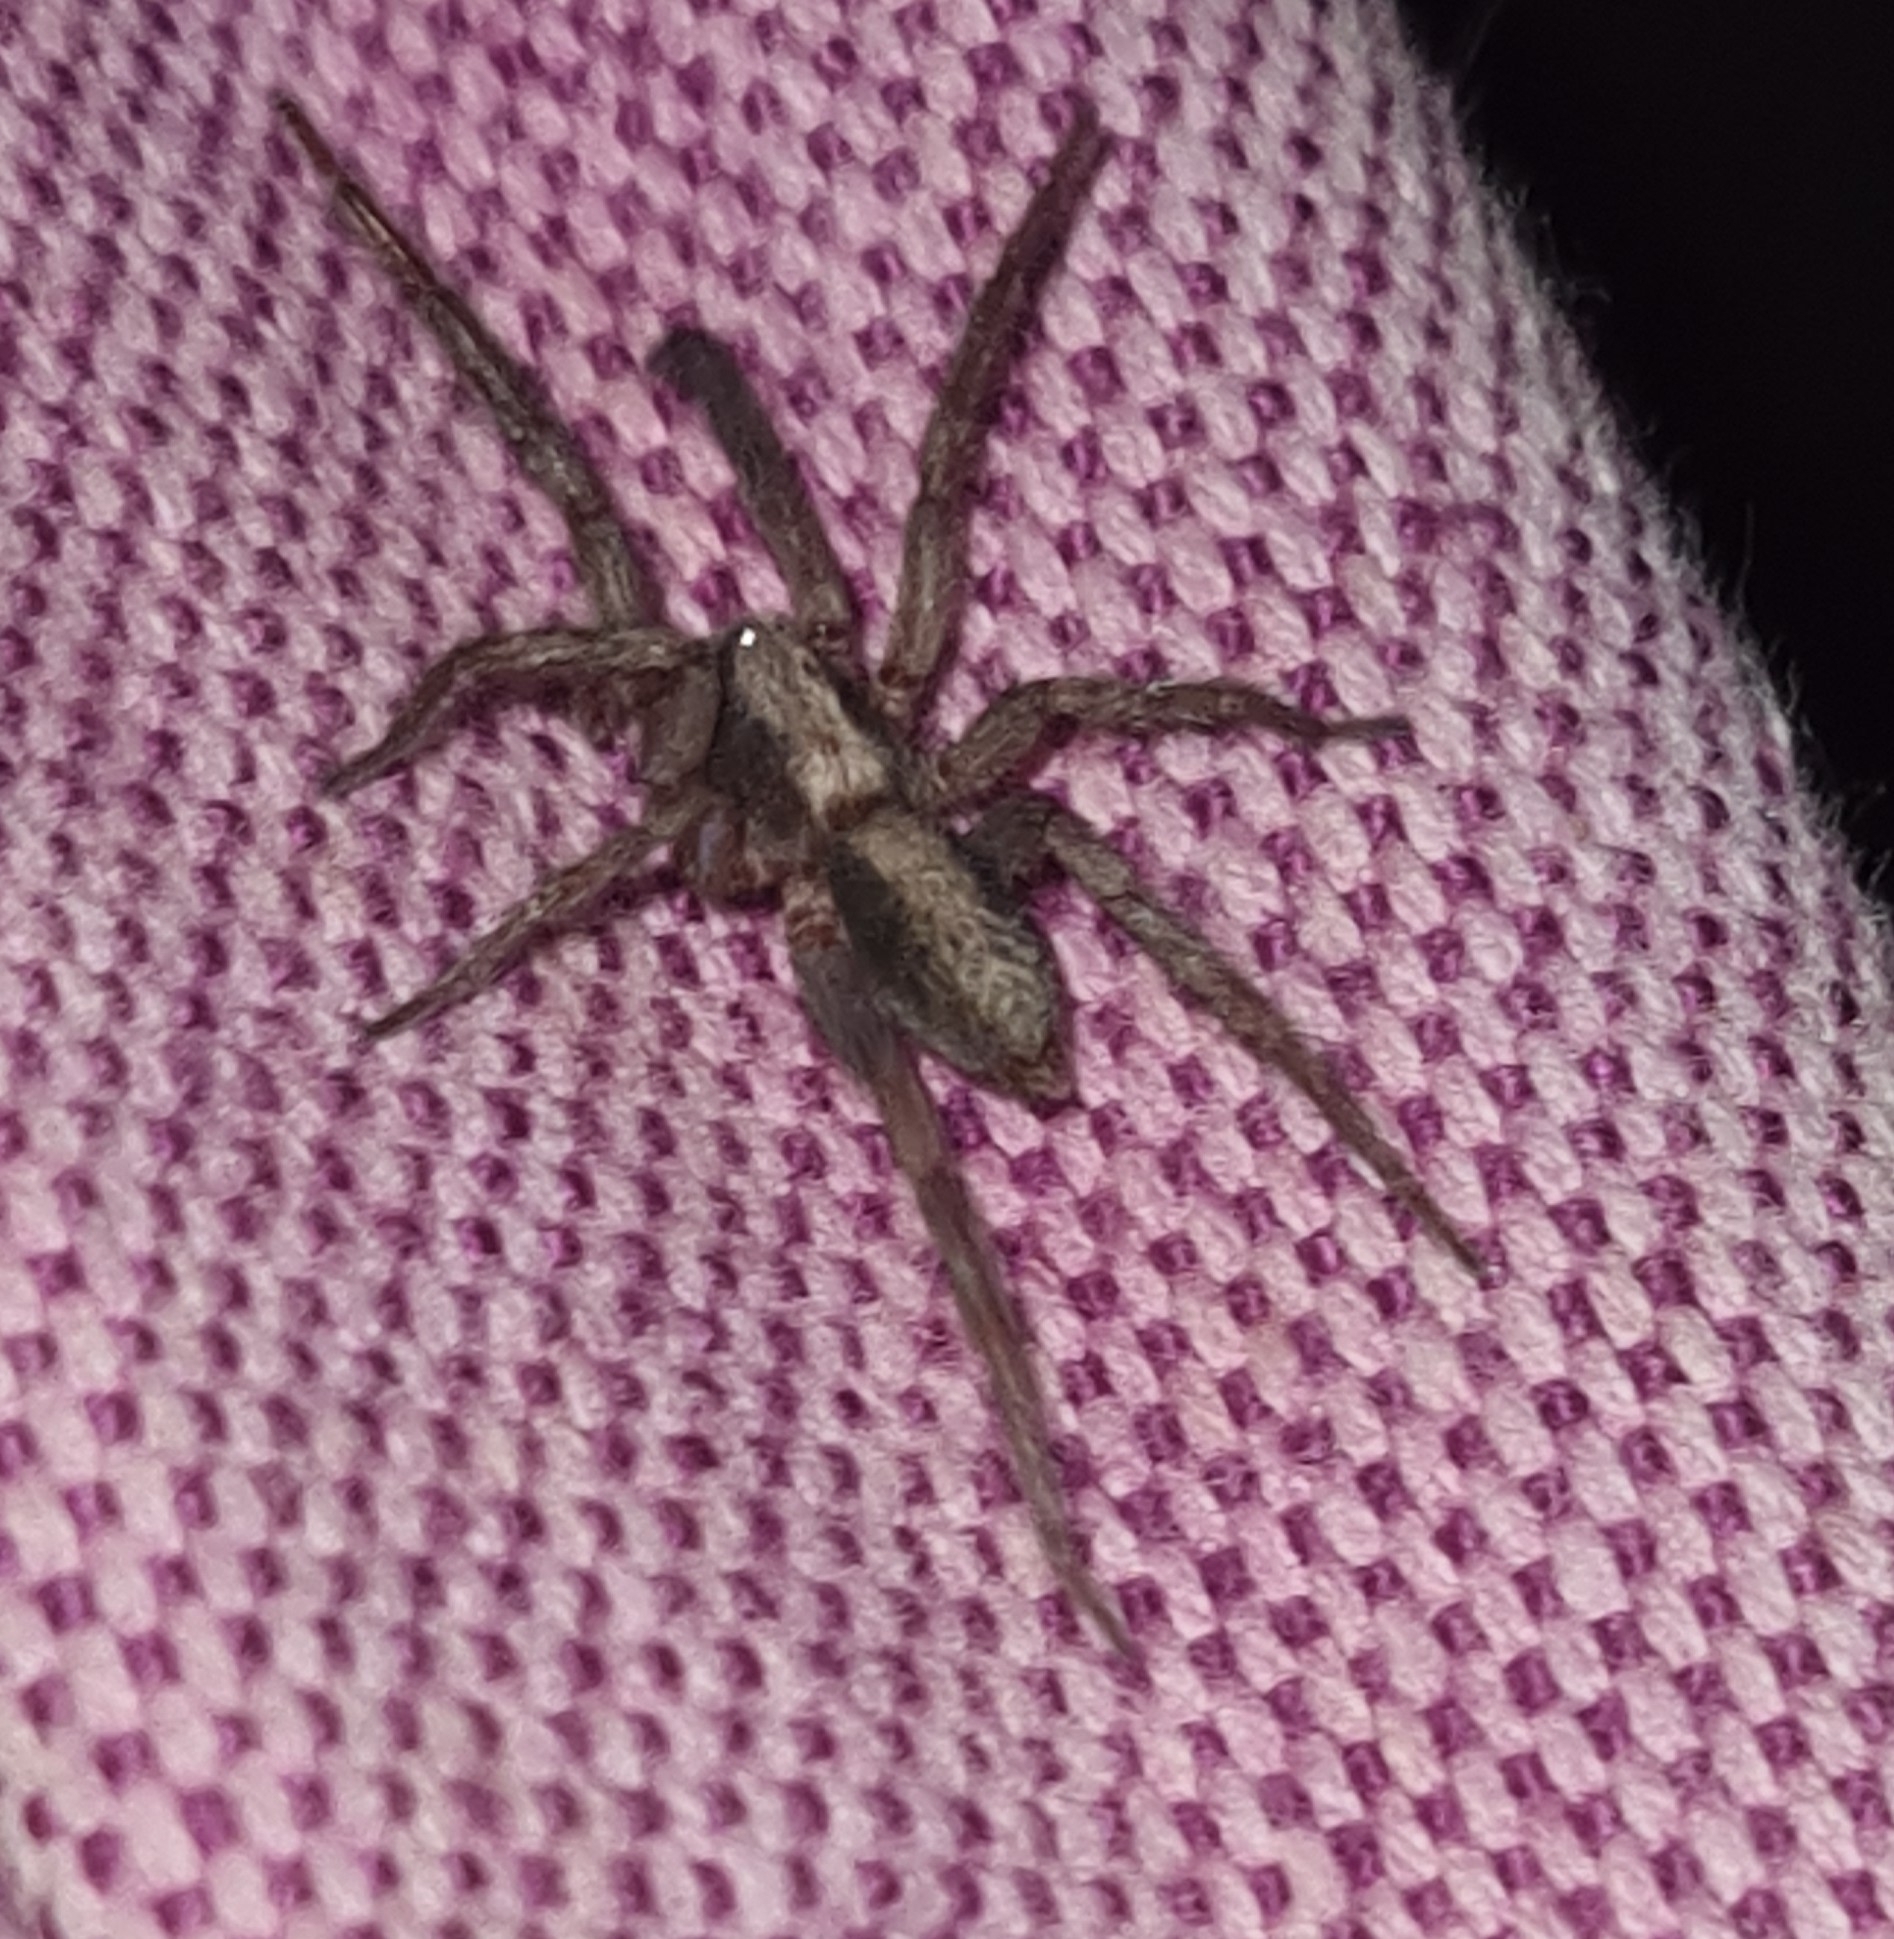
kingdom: Animalia
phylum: Arthropoda
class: Arachnida
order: Araneae
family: Miturgidae
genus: Teminius
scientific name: Teminius insularis
